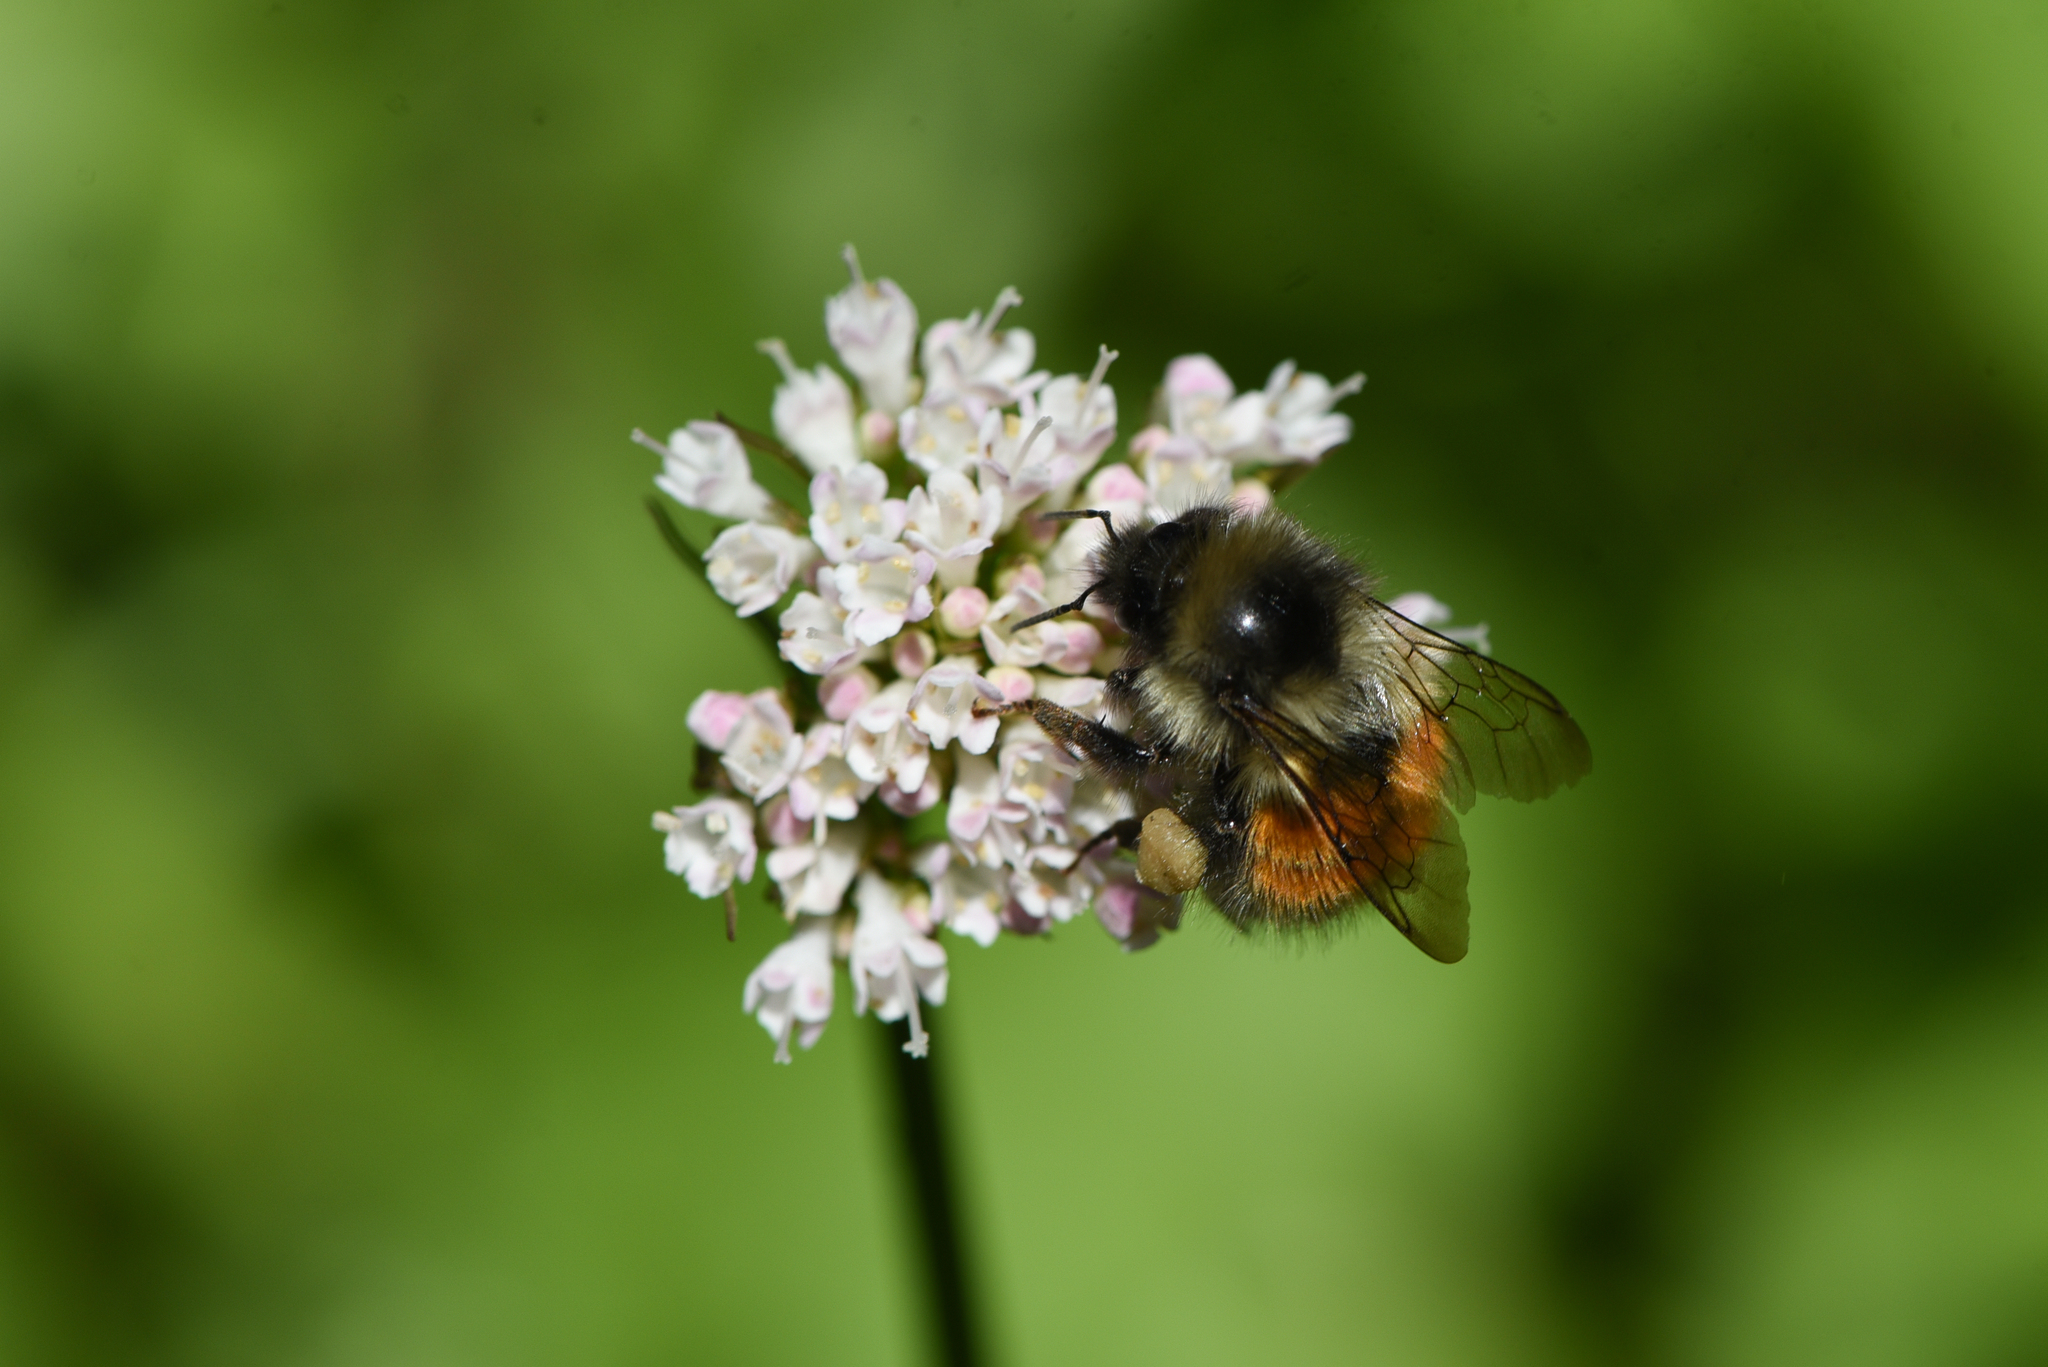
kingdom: Animalia
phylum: Arthropoda
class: Insecta
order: Hymenoptera
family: Apidae
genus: Bombus
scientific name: Bombus melanopygus
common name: Black tail bumble bee
